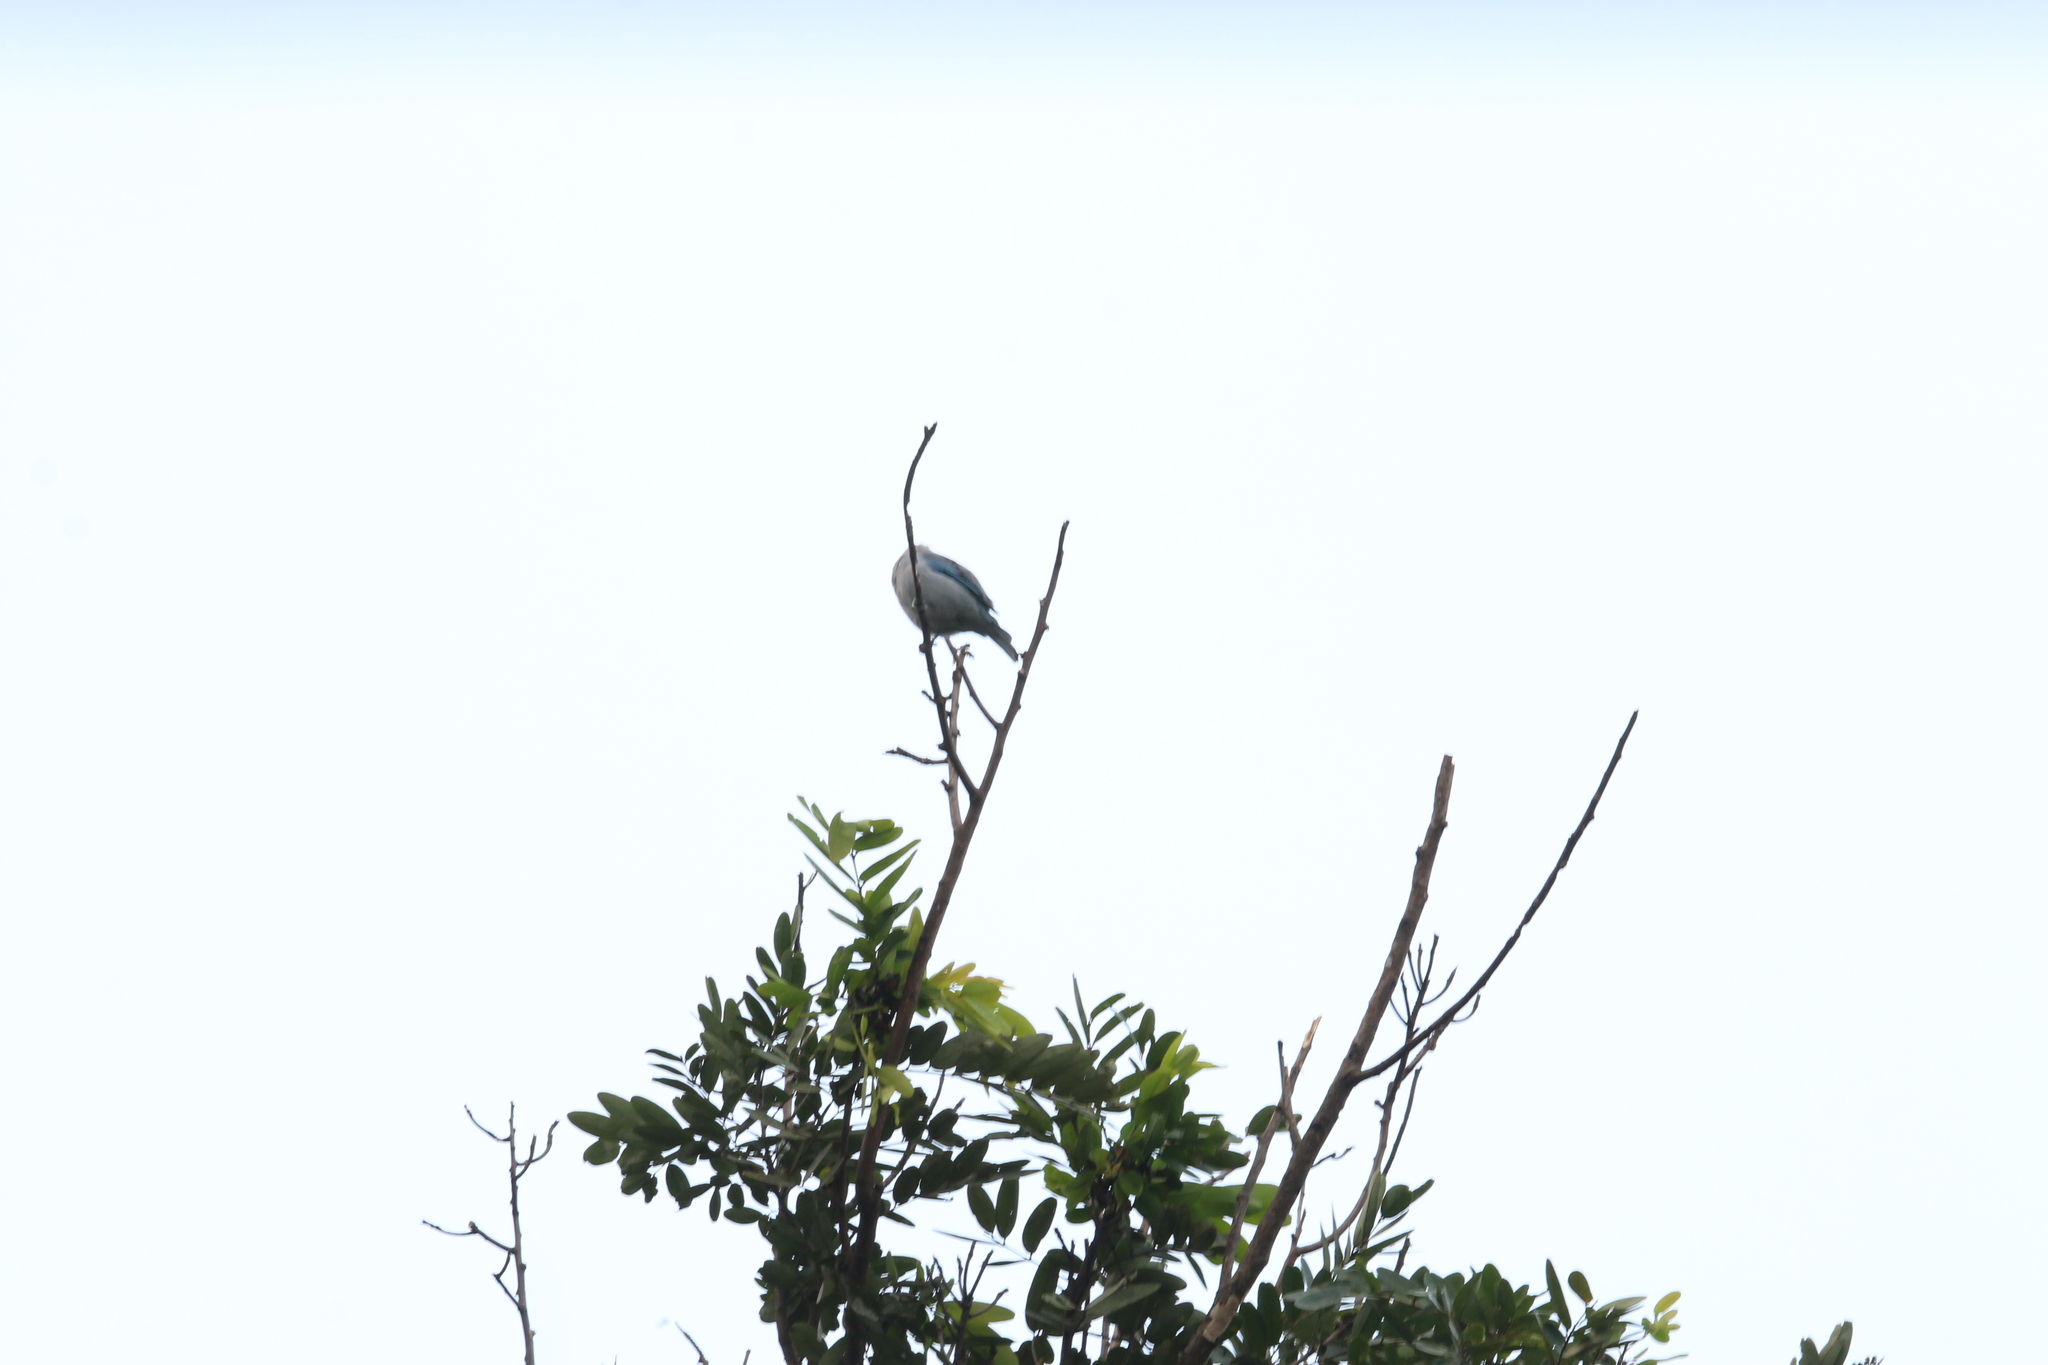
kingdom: Animalia
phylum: Chordata
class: Aves
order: Passeriformes
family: Thraupidae
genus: Thraupis
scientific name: Thraupis episcopus
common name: Blue-grey tanager
